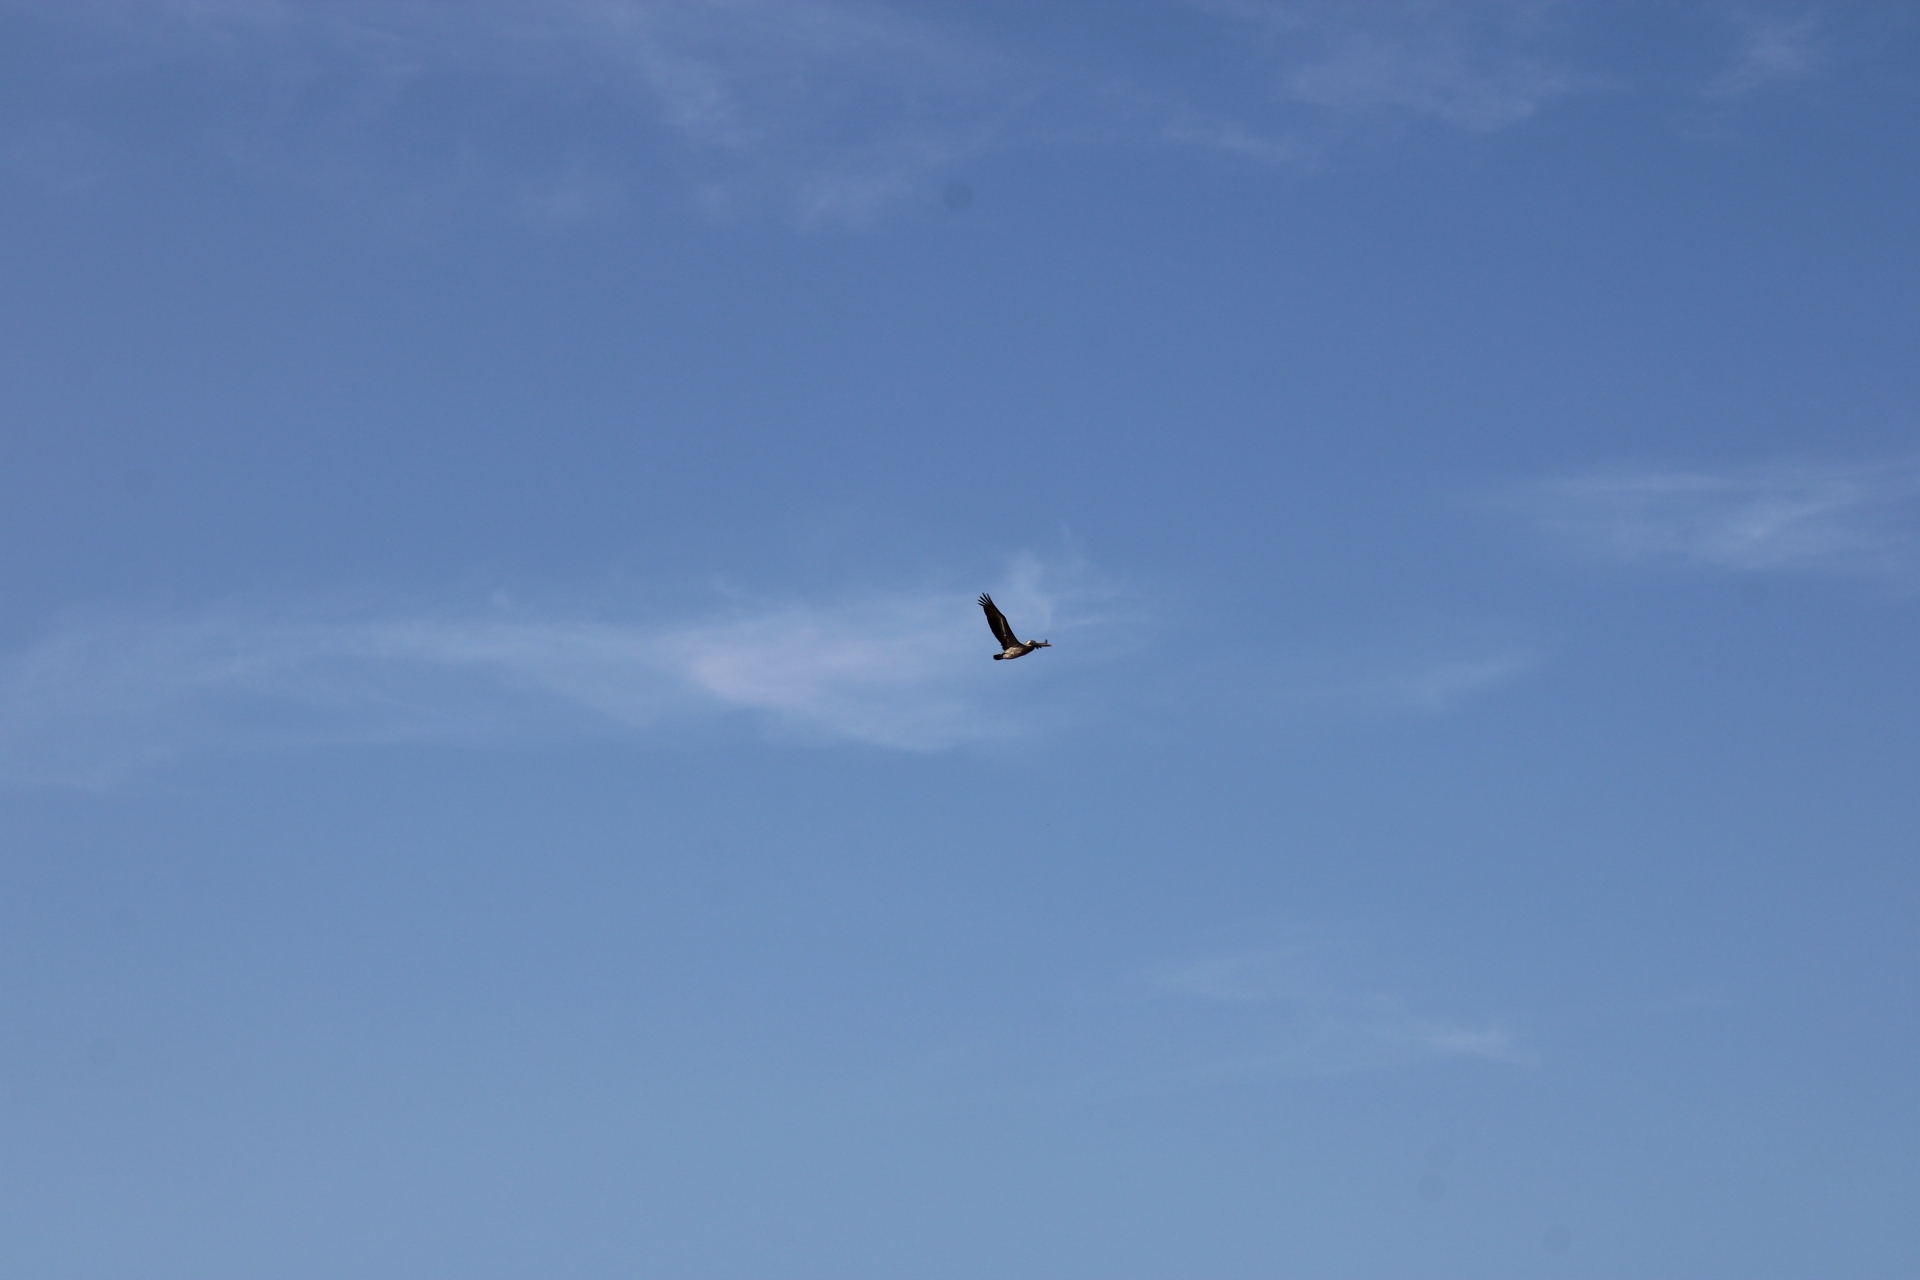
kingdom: Animalia
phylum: Chordata
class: Aves
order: Pelecaniformes
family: Pelecanidae
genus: Pelecanus
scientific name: Pelecanus occidentalis
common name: Brown pelican
